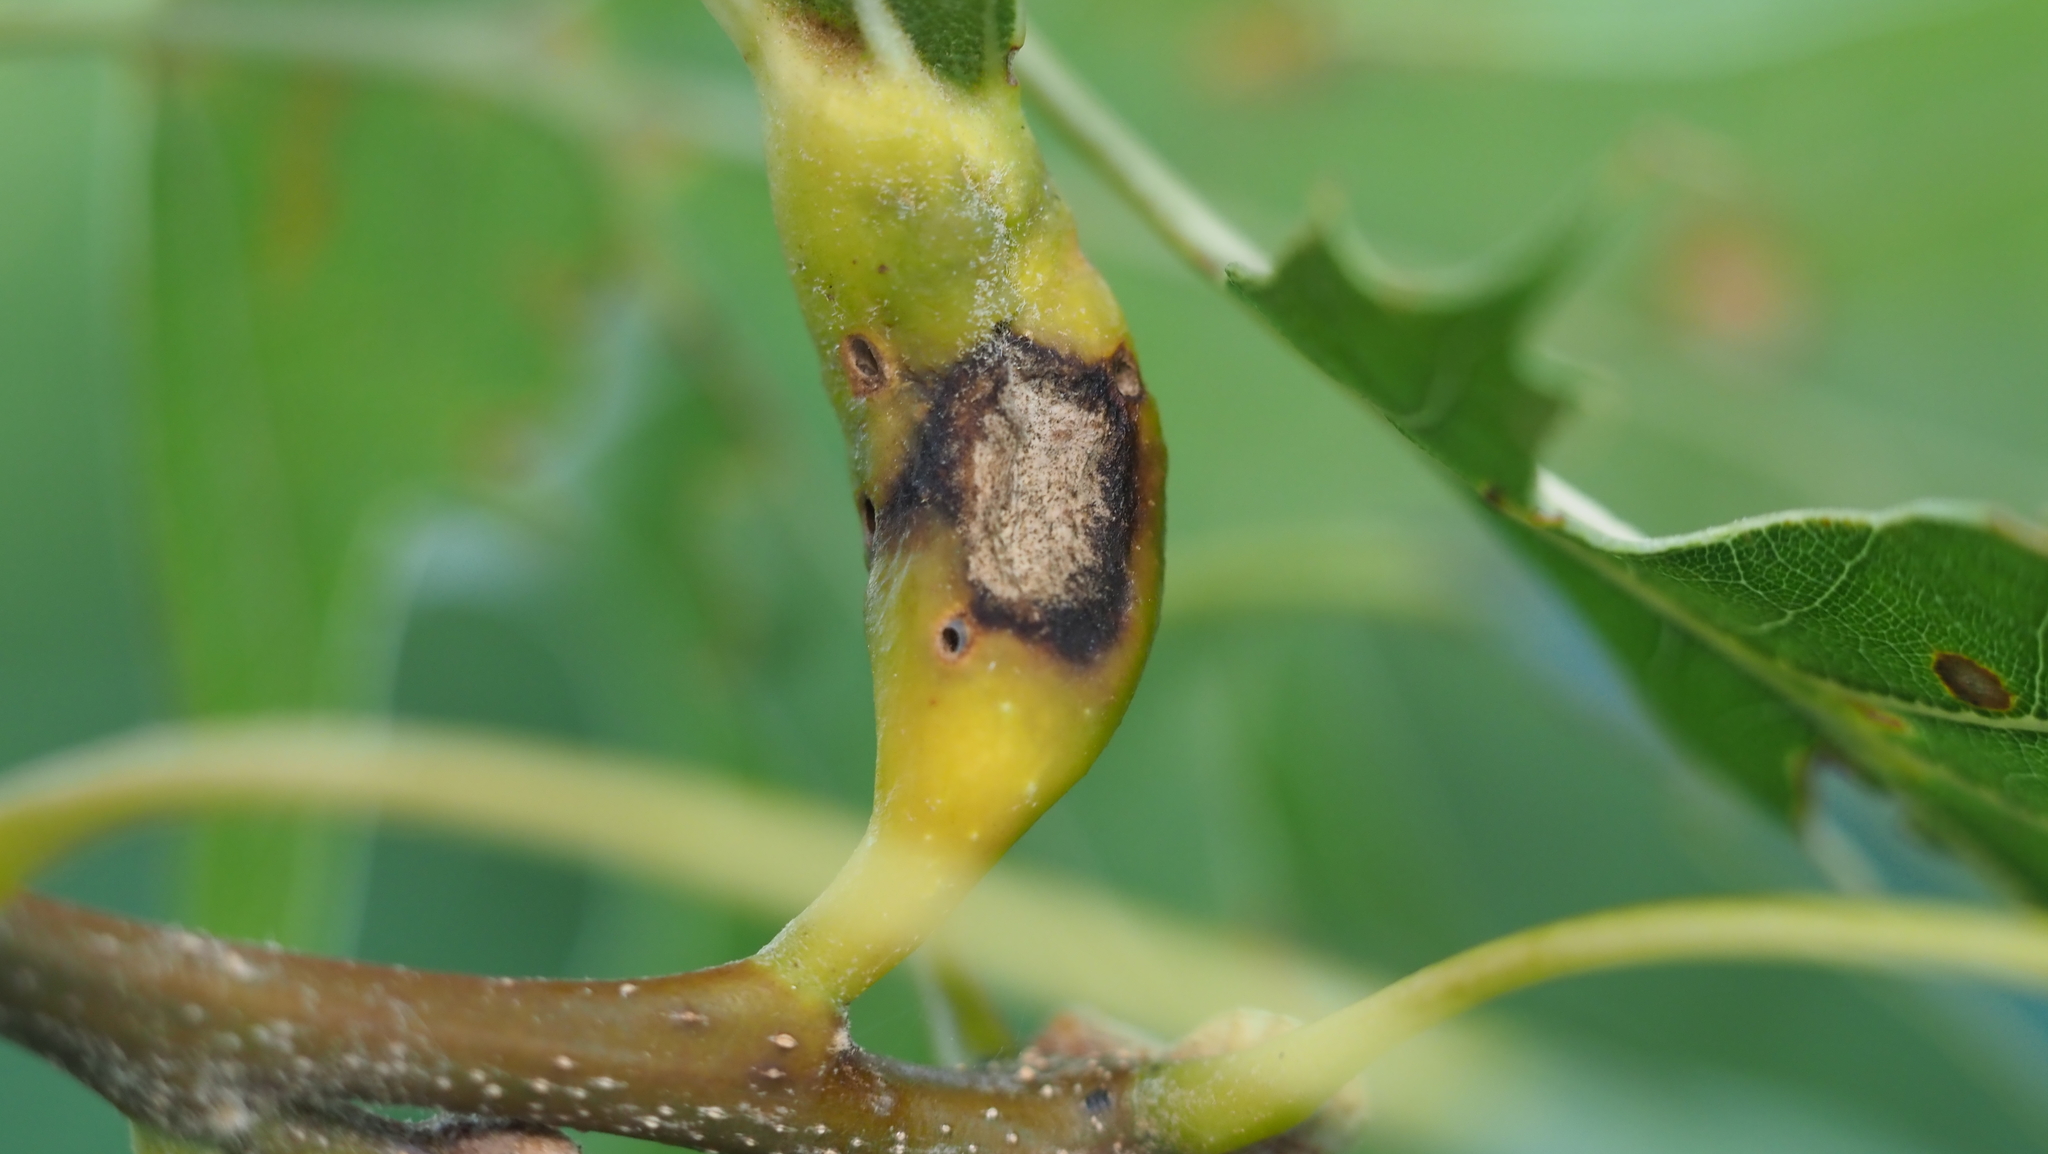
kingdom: Animalia
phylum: Arthropoda
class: Insecta
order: Hymenoptera
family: Cynipidae
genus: Melikaiella
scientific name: Melikaiella tumifica
